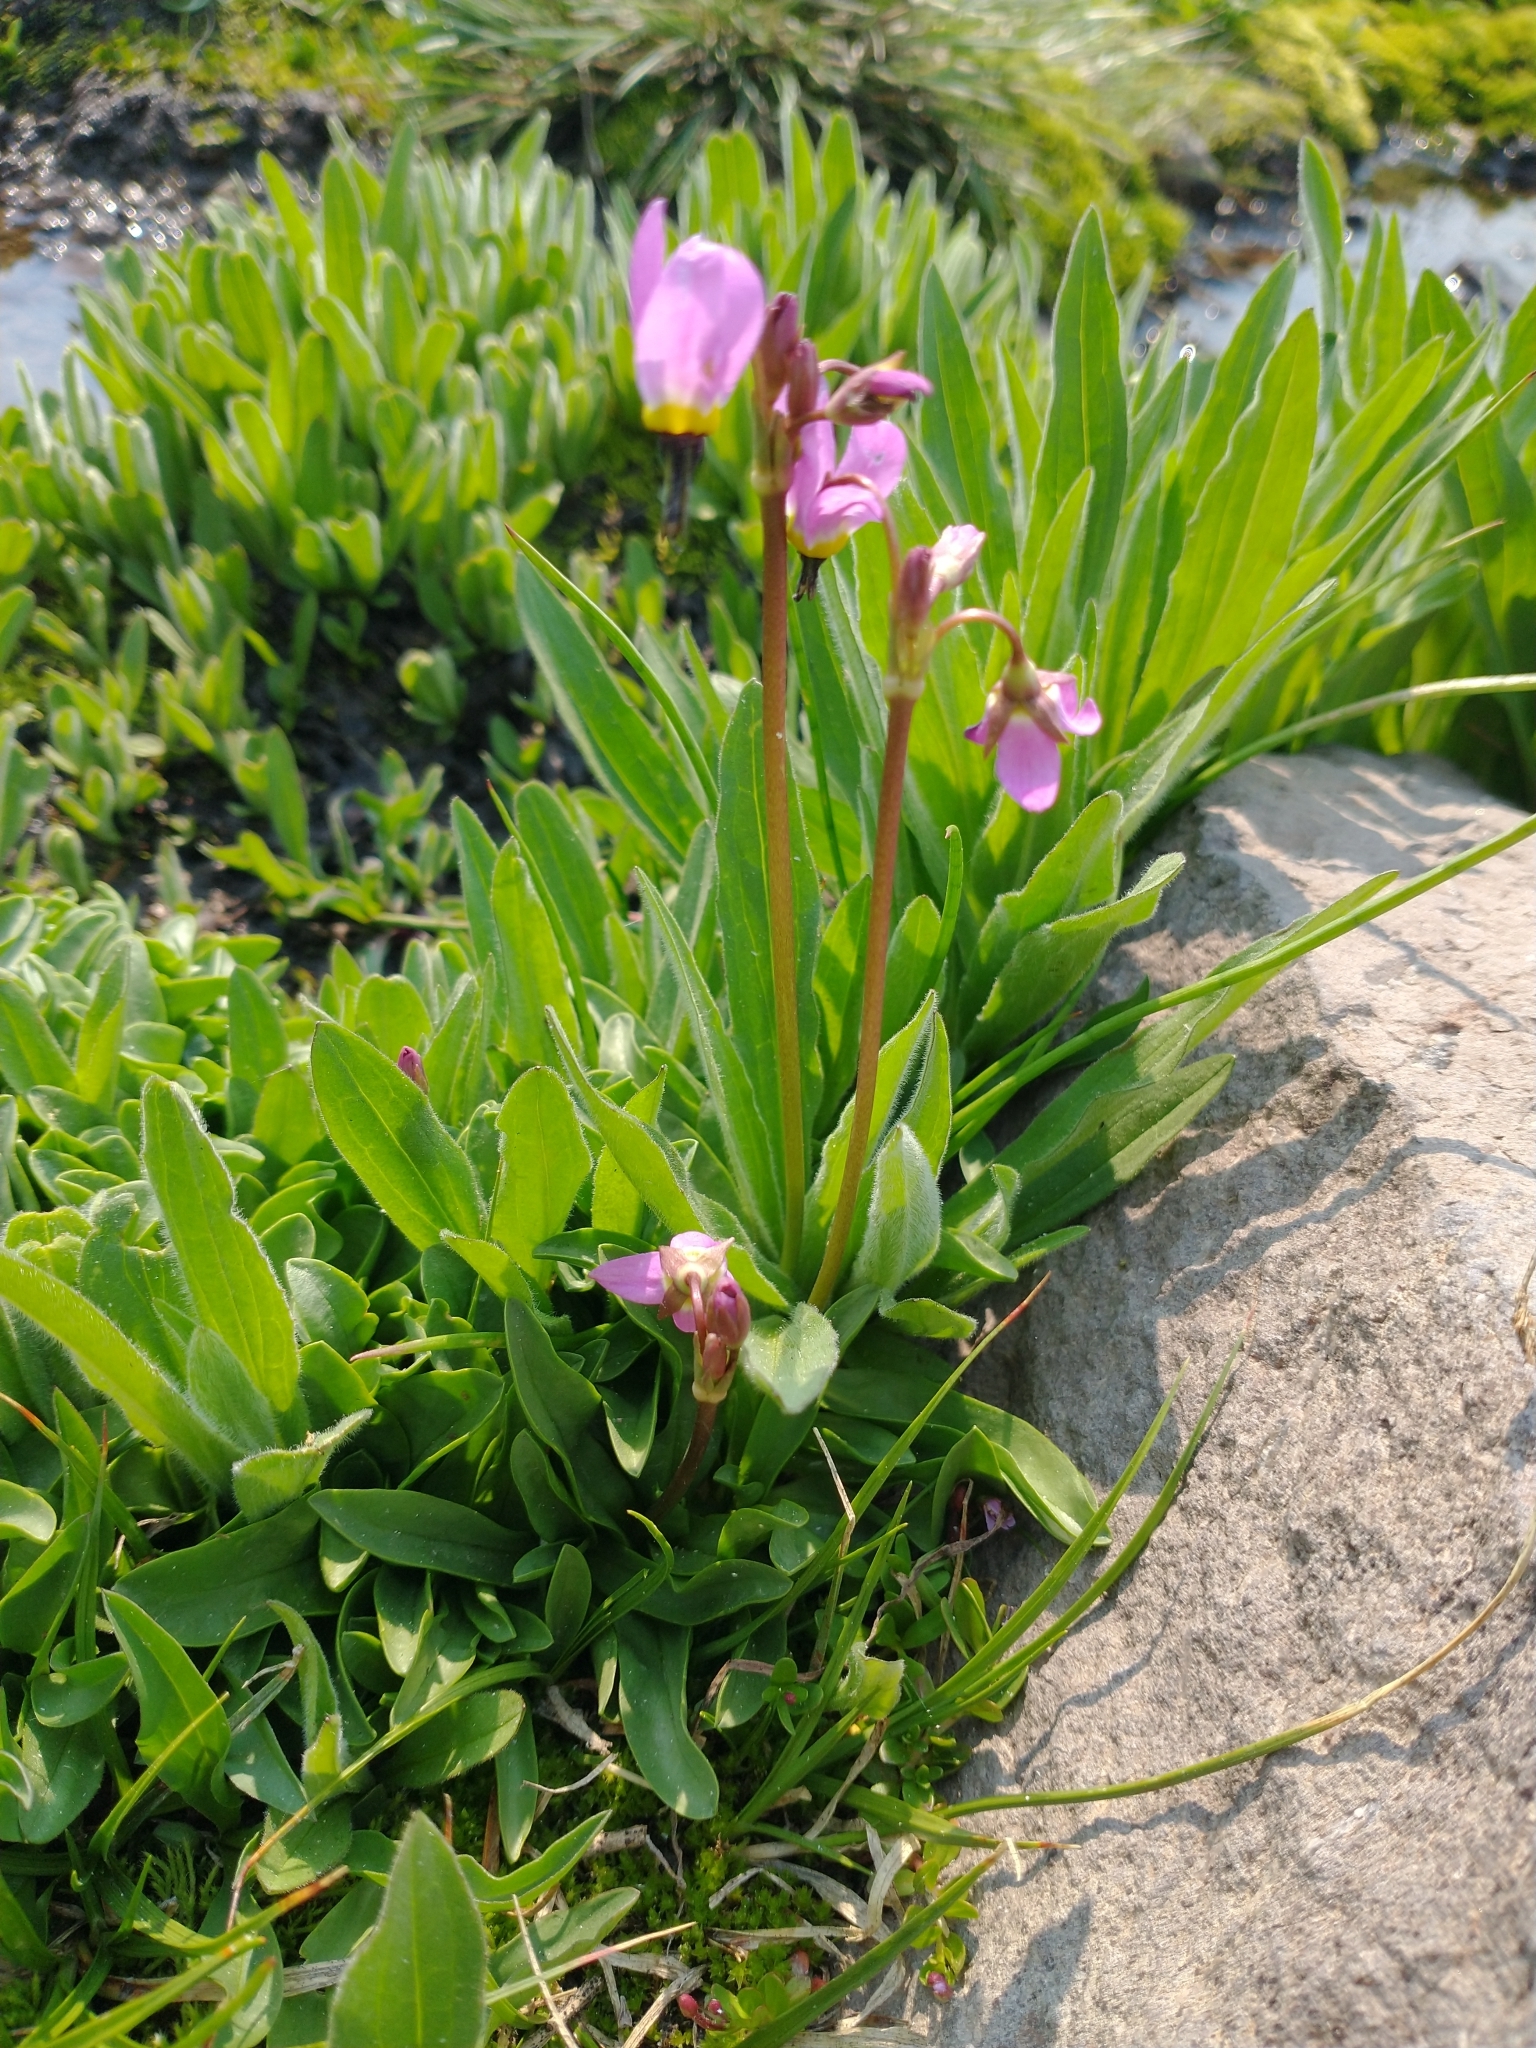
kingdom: Plantae
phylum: Tracheophyta
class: Magnoliopsida
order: Ericales
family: Primulaceae
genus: Dodecatheon
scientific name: Dodecatheon alpinum
